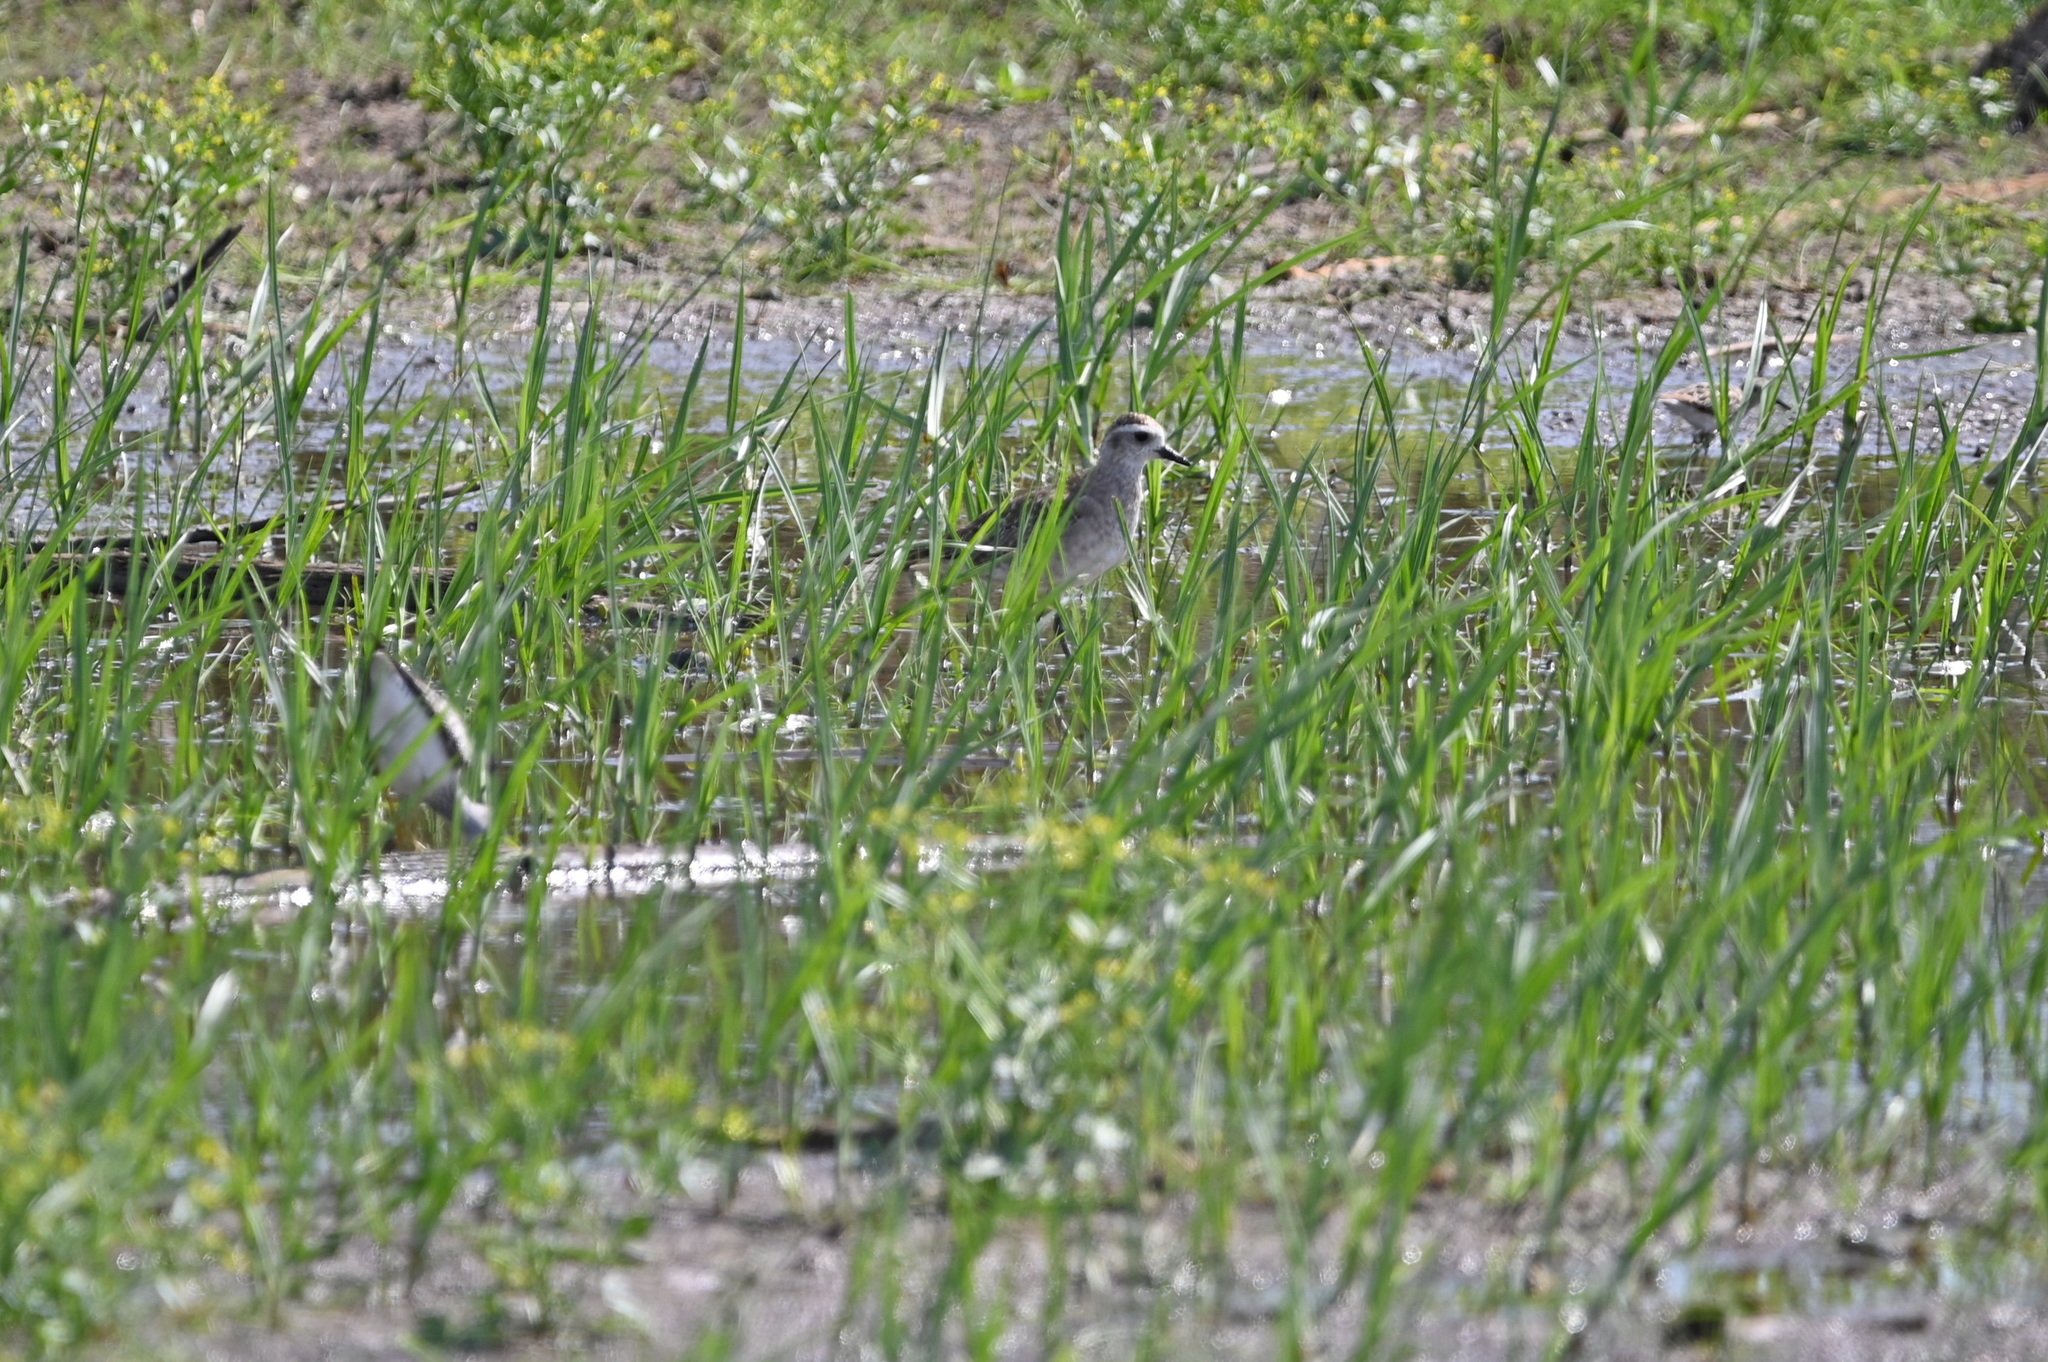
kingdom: Animalia
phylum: Chordata
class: Aves
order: Charadriiformes
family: Charadriidae
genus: Pluvialis
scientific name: Pluvialis dominica
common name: American golden plover
